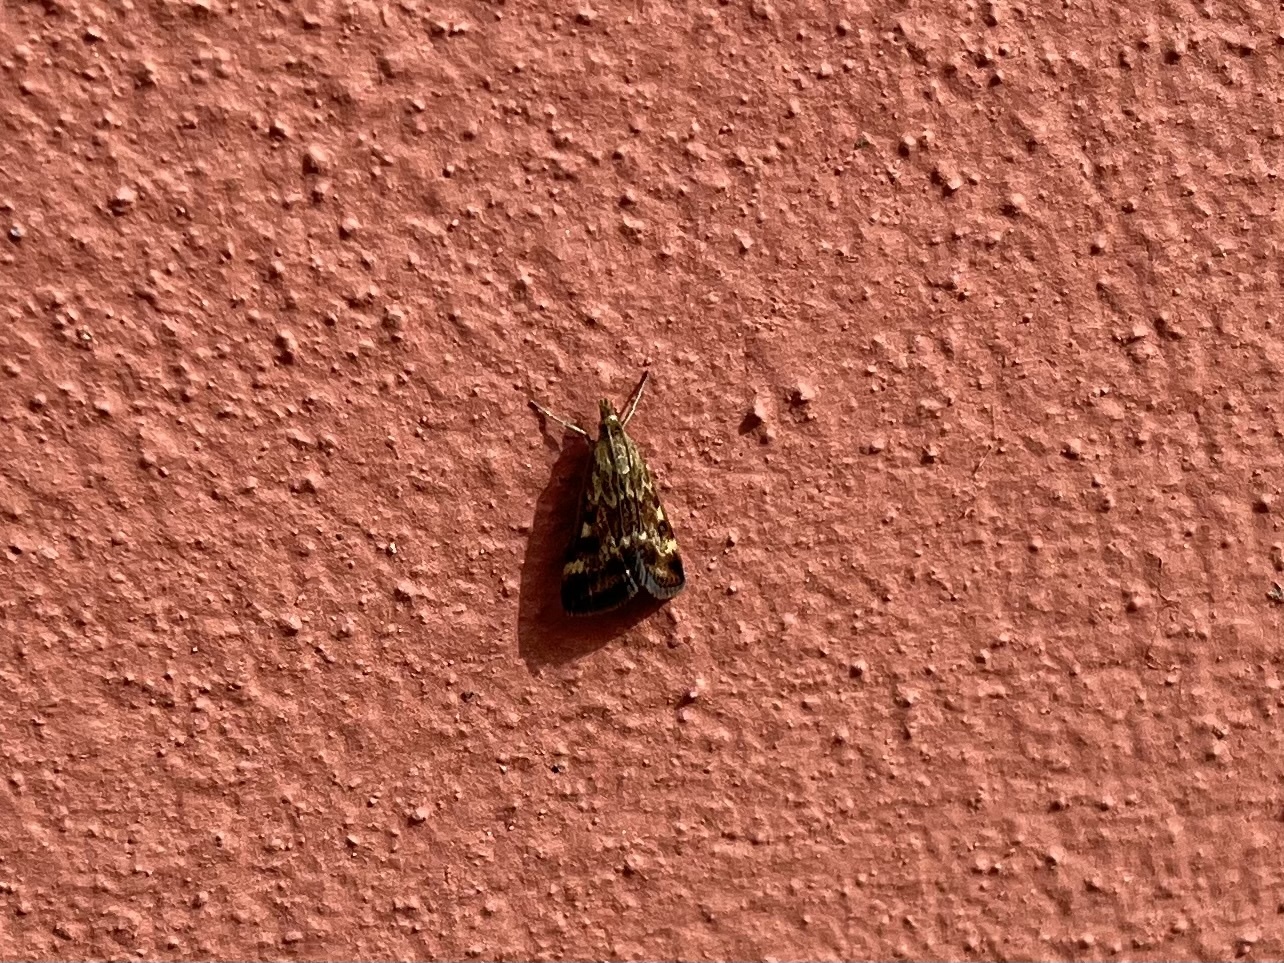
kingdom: Animalia
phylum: Arthropoda
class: Insecta
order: Lepidoptera
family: Crambidae
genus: Pyrausta
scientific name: Pyrausta despicata
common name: Straw-barred pearl
